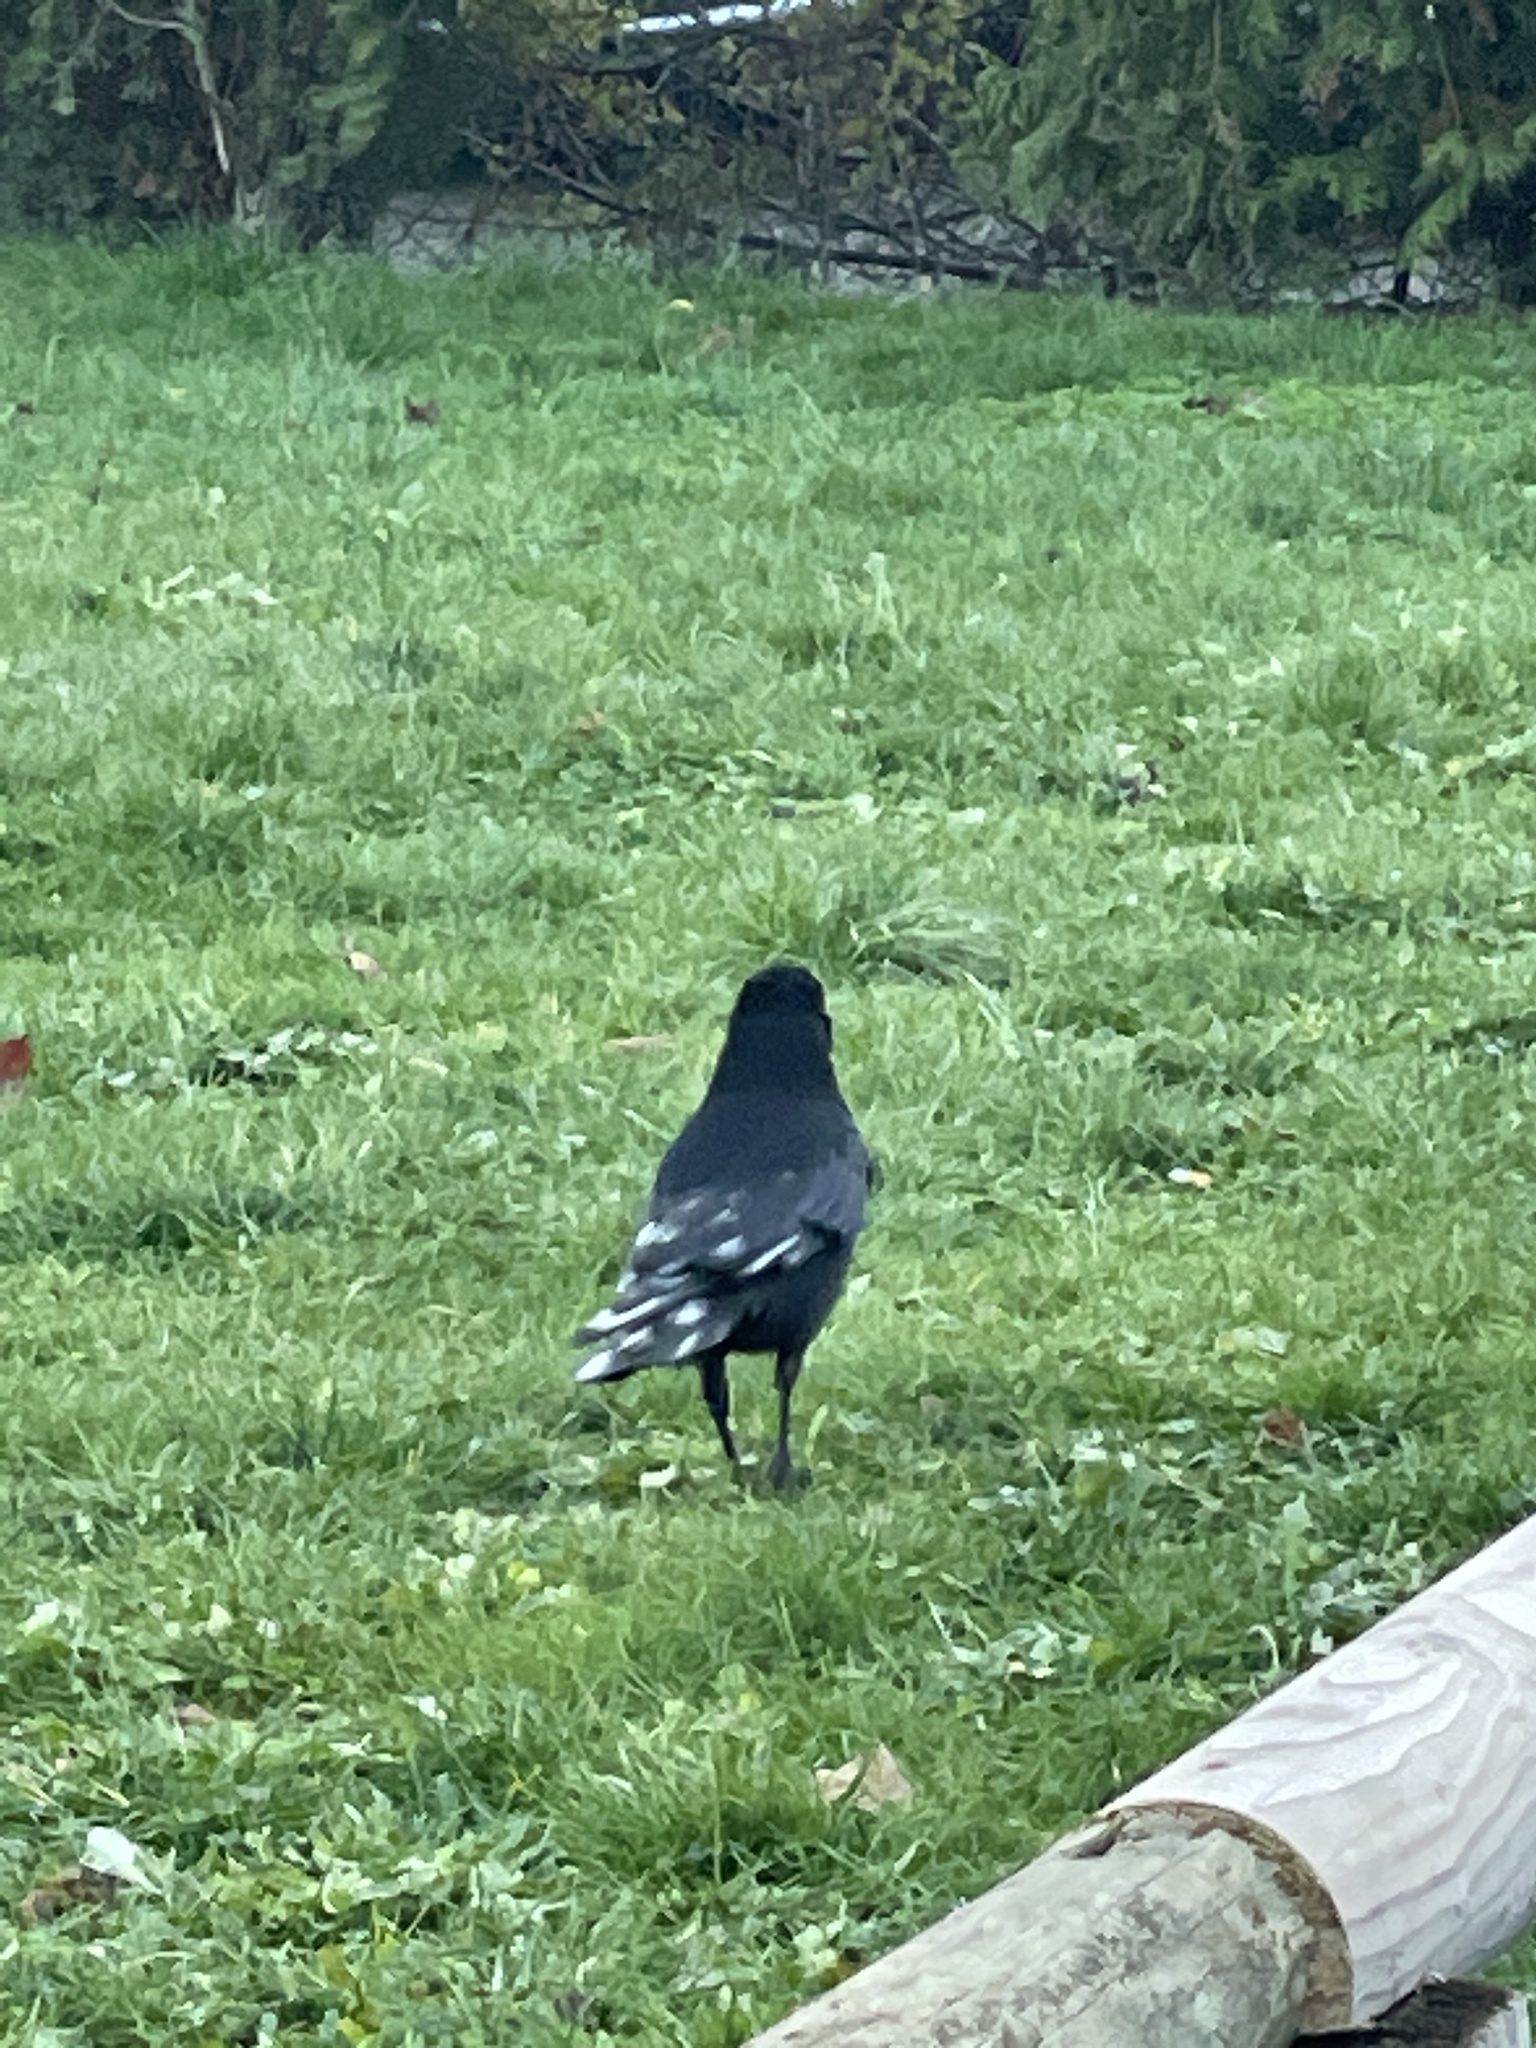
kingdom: Animalia
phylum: Chordata
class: Aves
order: Passeriformes
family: Corvidae
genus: Corvus
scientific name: Corvus corone
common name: Carrion crow
